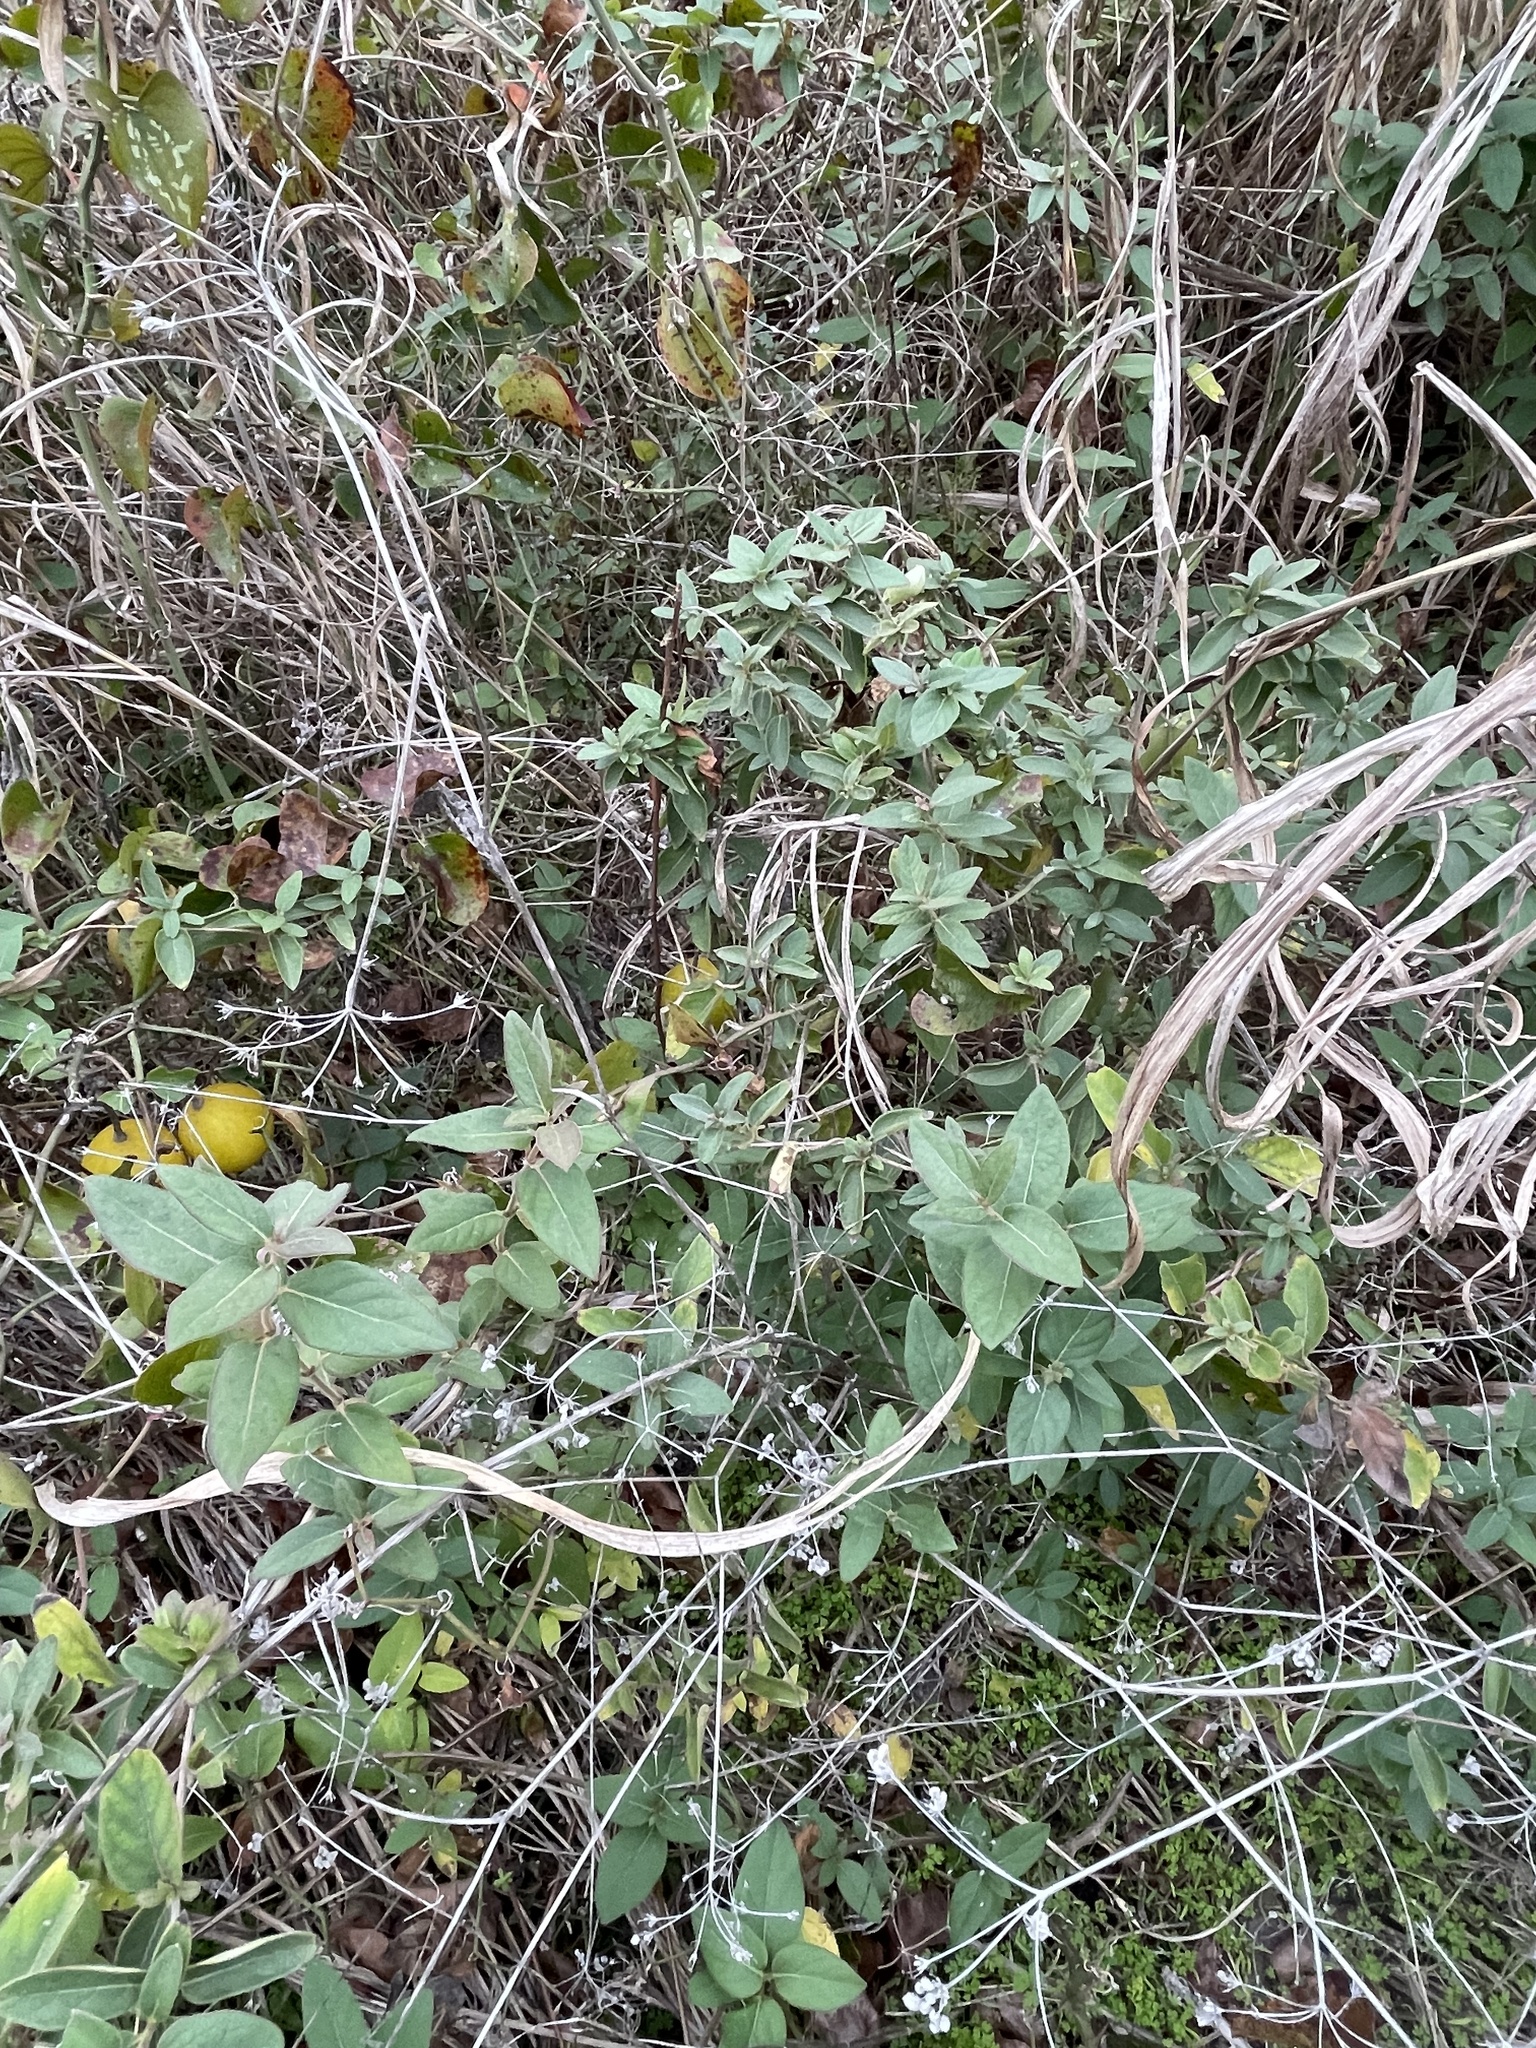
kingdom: Plantae
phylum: Tracheophyta
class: Magnoliopsida
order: Dipsacales
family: Caprifoliaceae
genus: Lonicera
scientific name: Lonicera japonica
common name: Japanese honeysuckle
